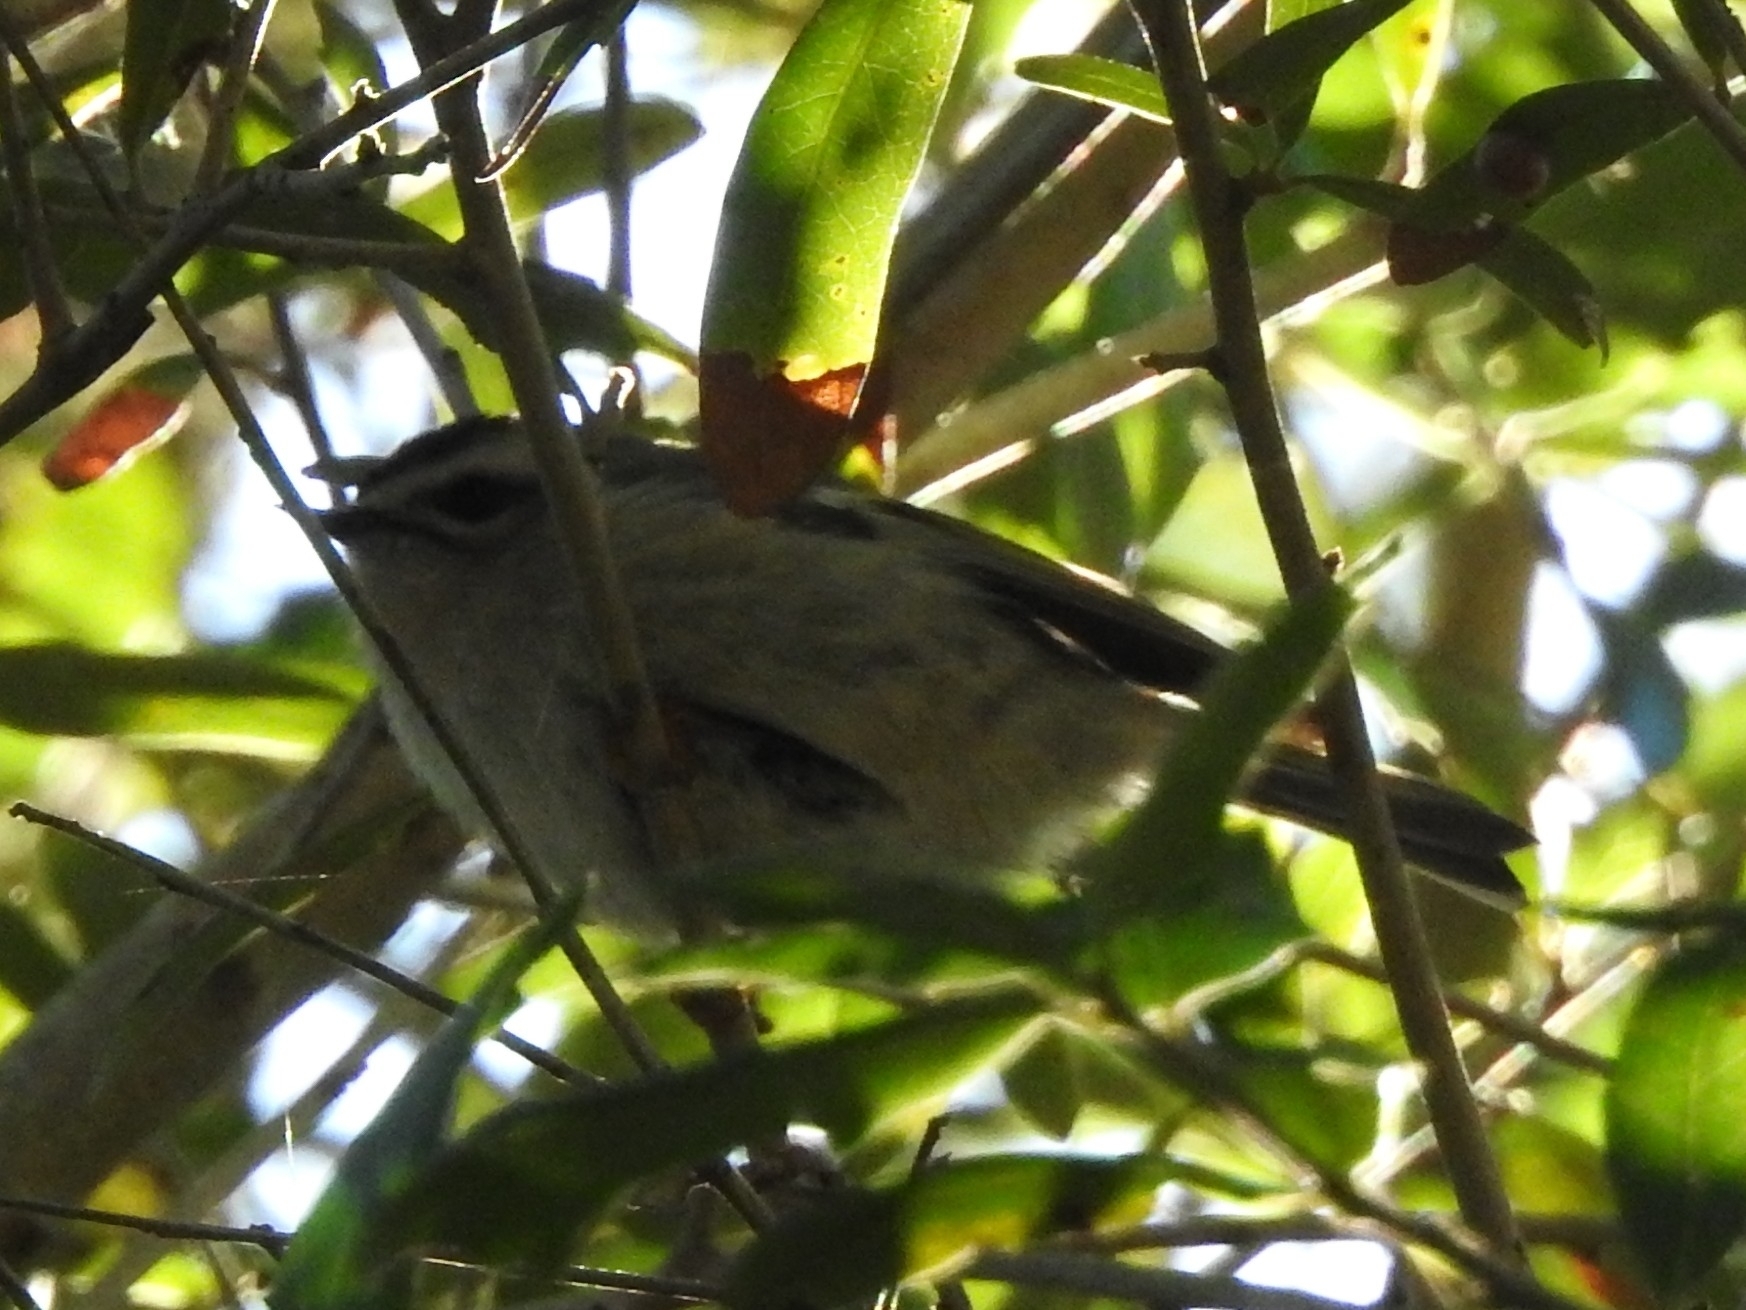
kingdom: Animalia
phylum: Chordata
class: Aves
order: Passeriformes
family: Regulidae
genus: Regulus
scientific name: Regulus satrapa
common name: Golden-crowned kinglet
